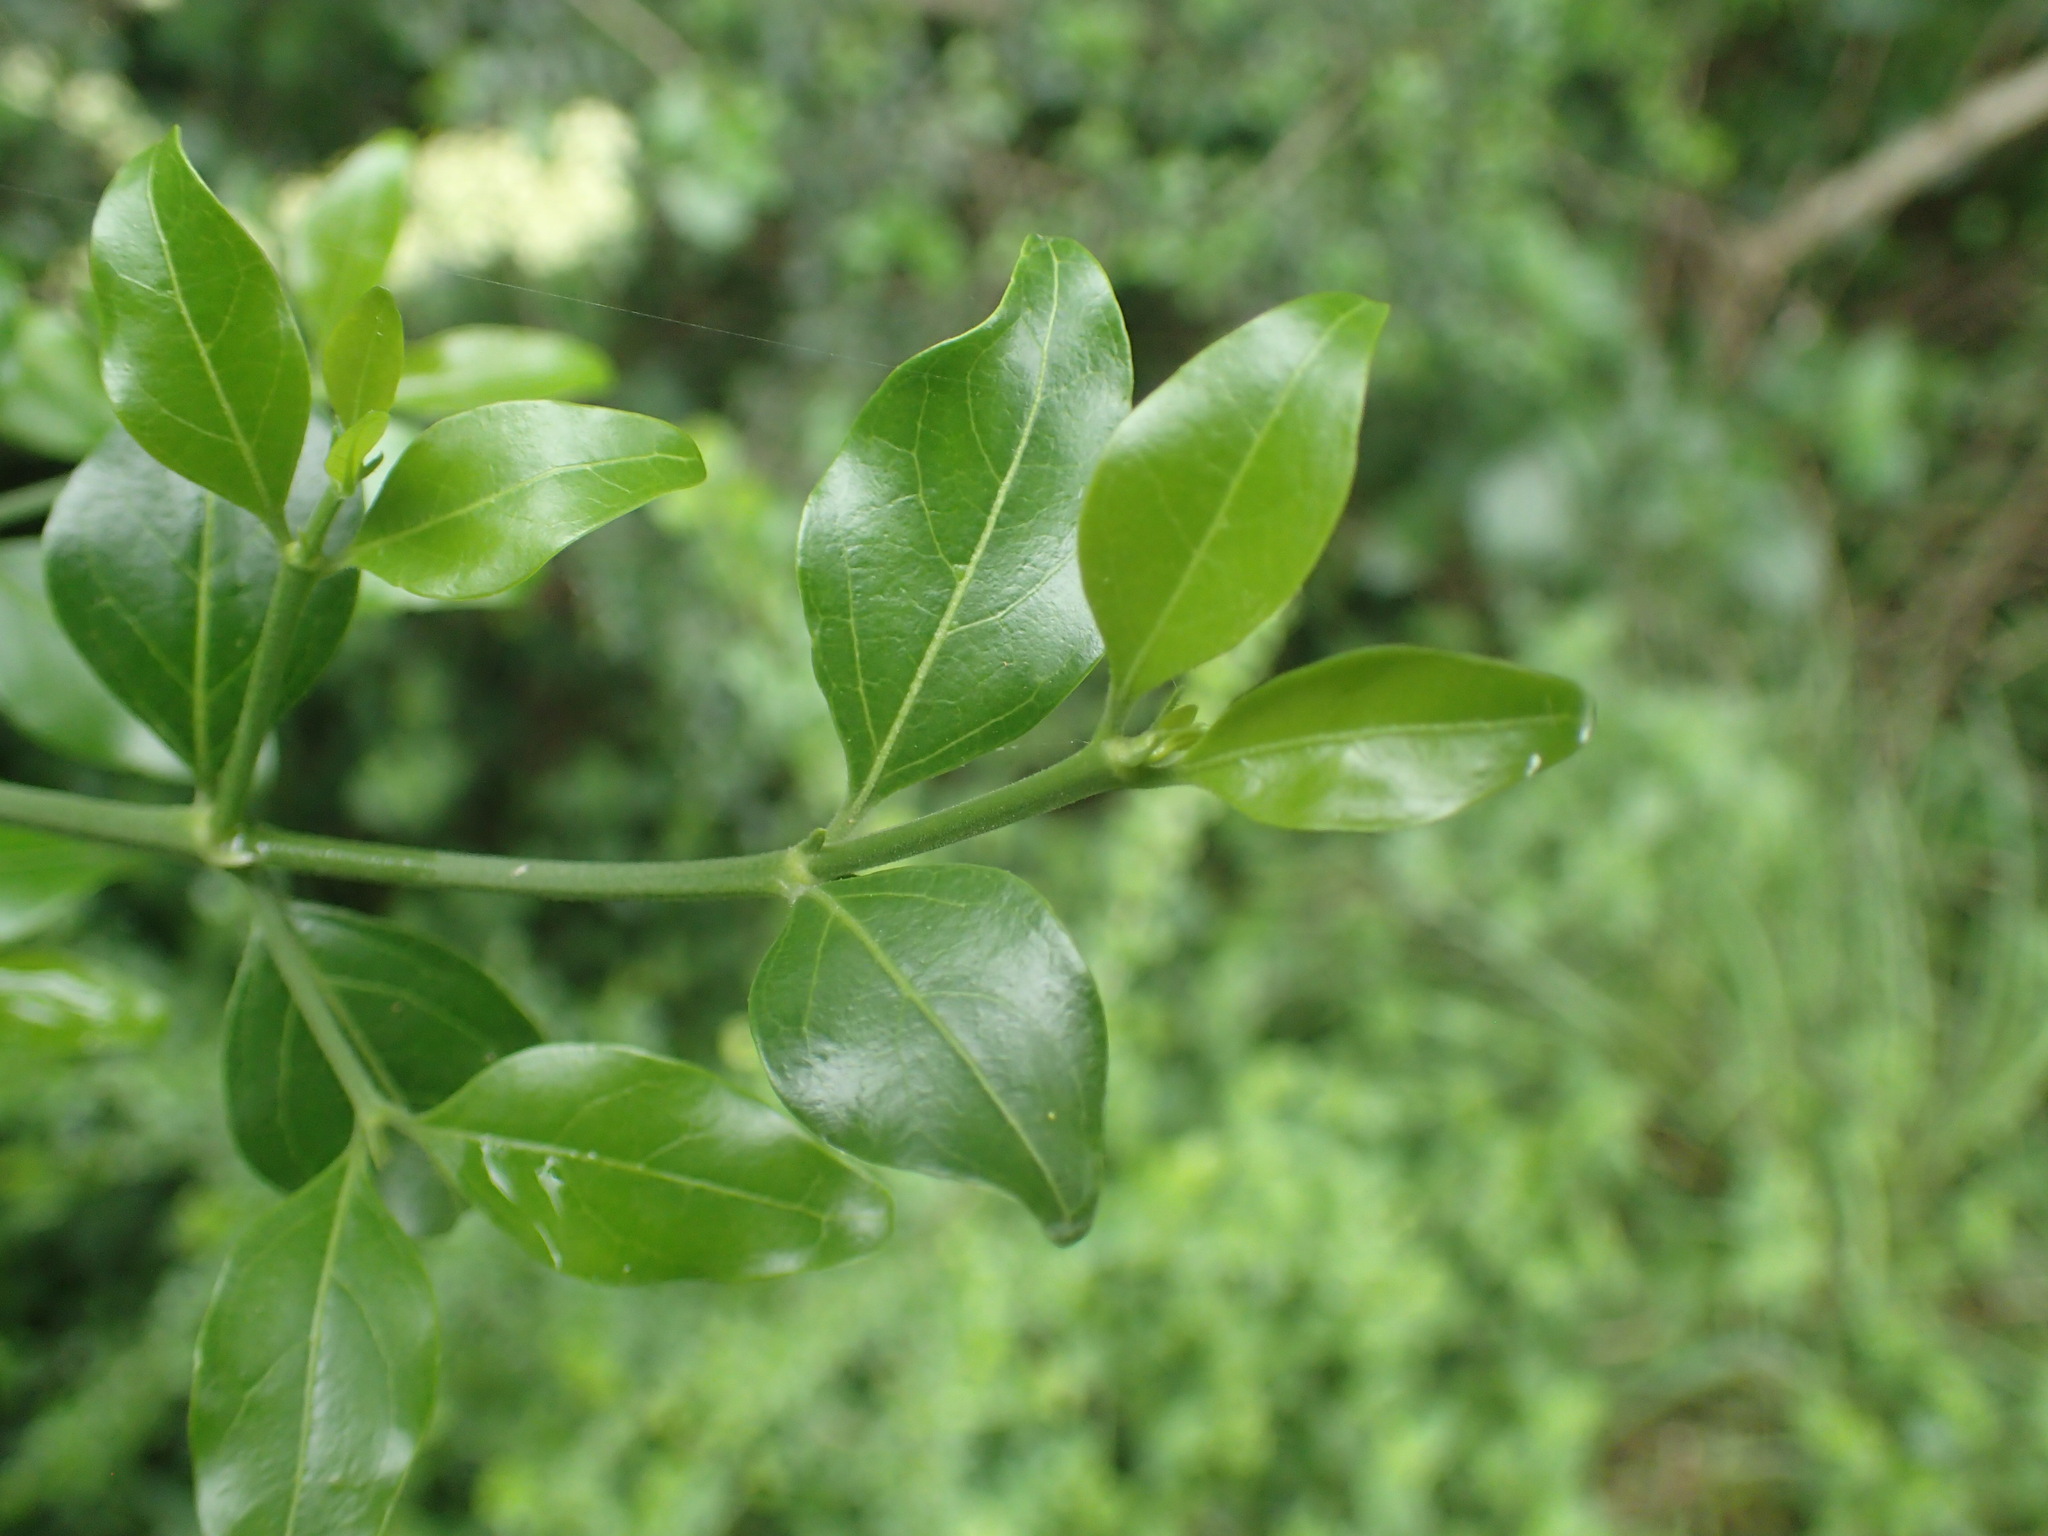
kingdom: Plantae
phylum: Tracheophyta
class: Magnoliopsida
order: Gentianales
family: Rubiaceae
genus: Psydrax
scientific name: Psydrax locuples
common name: Sand quar
